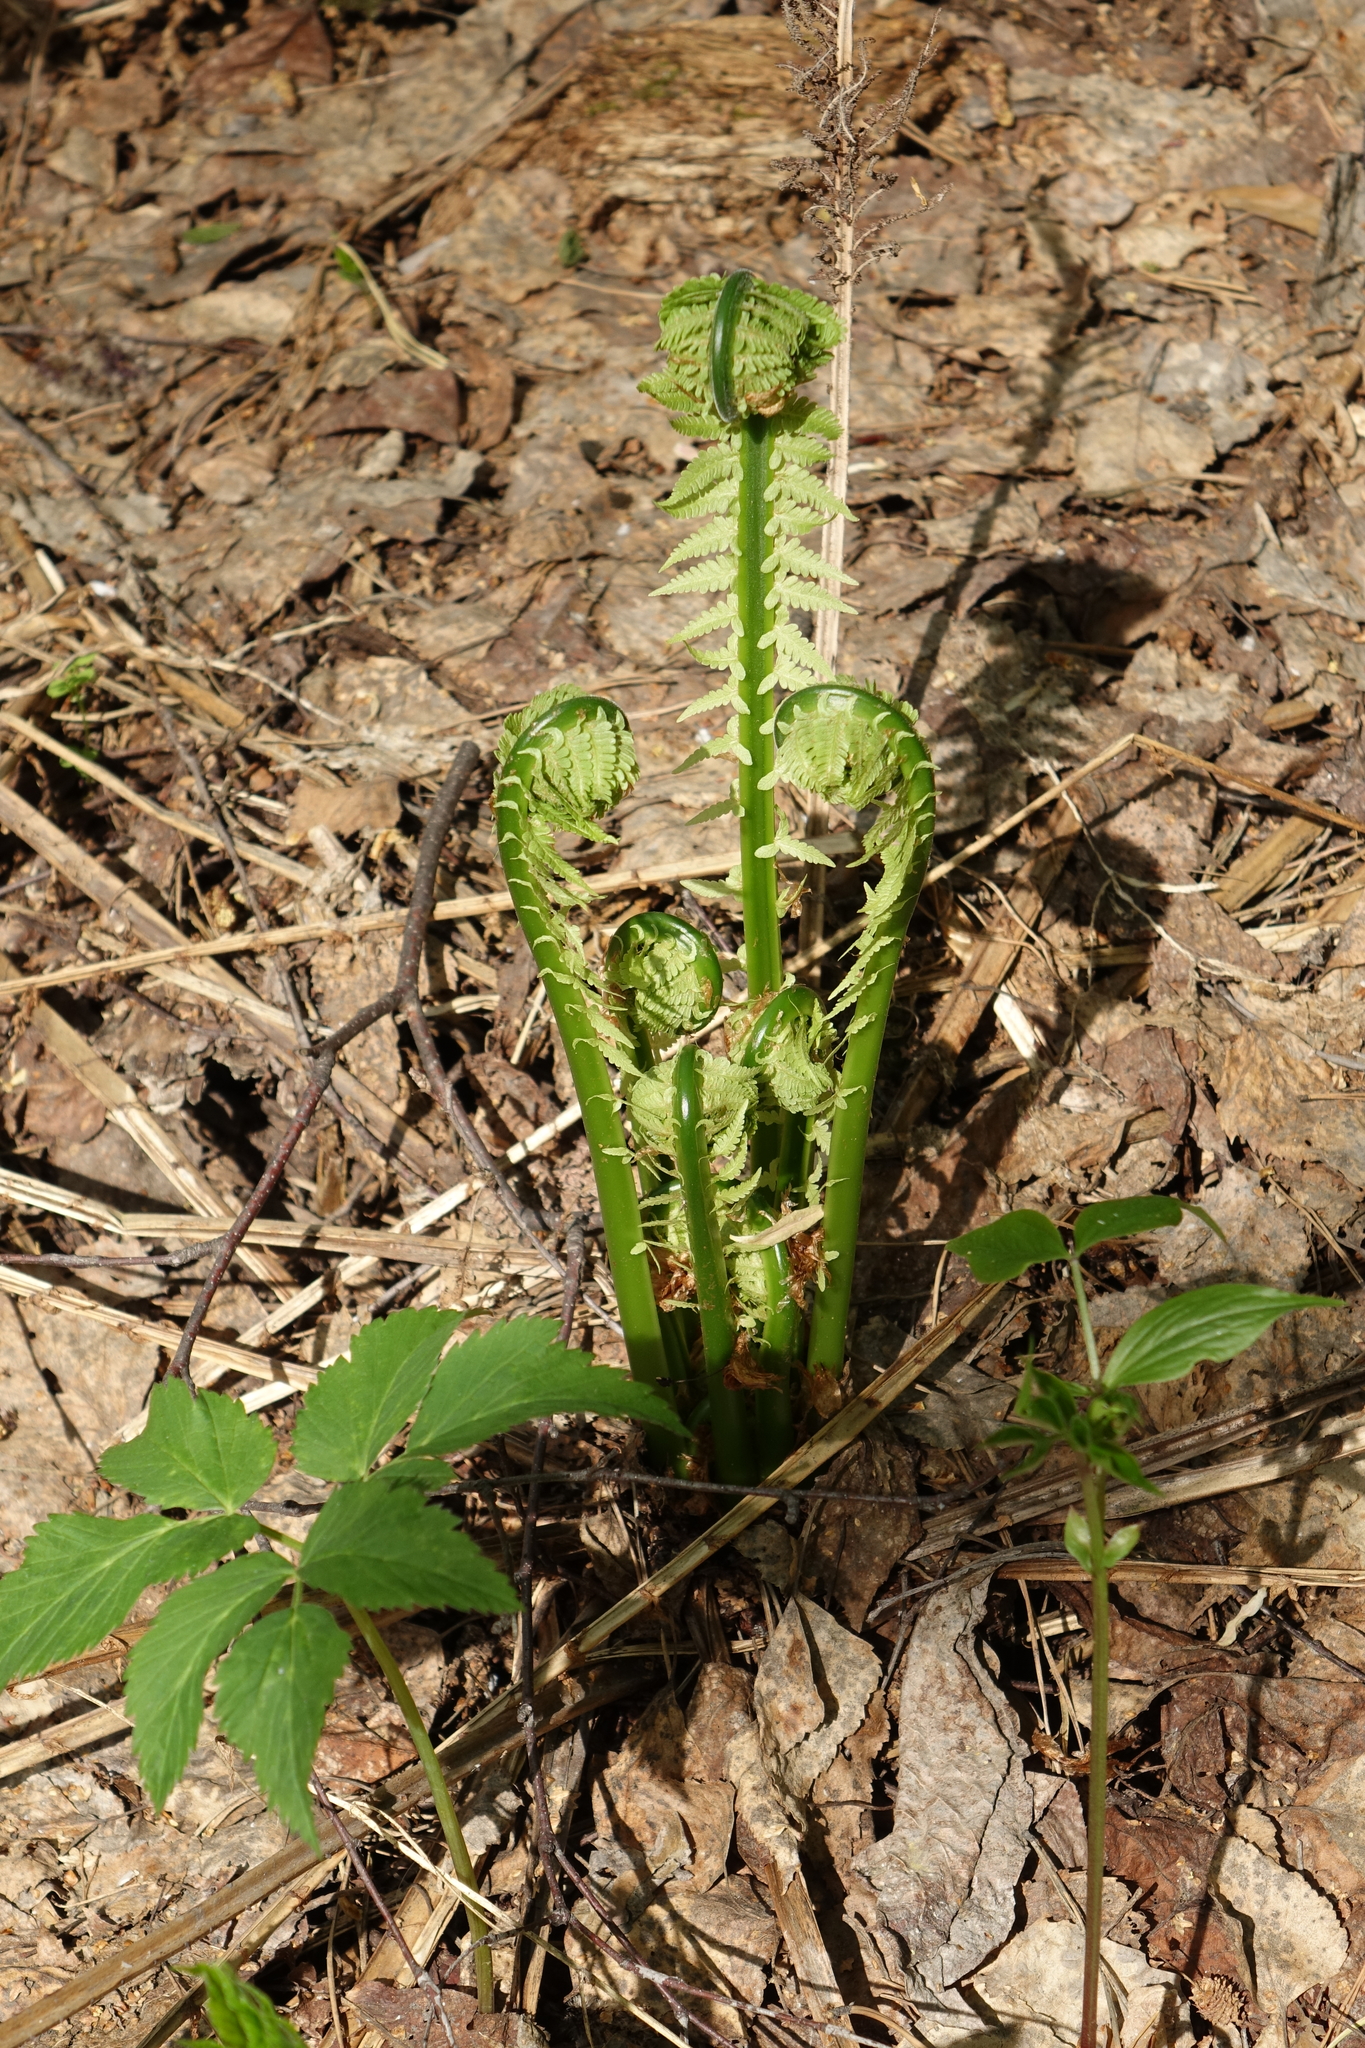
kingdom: Plantae
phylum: Tracheophyta
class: Polypodiopsida
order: Polypodiales
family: Onocleaceae
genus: Matteuccia
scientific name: Matteuccia struthiopteris
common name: Ostrich fern
